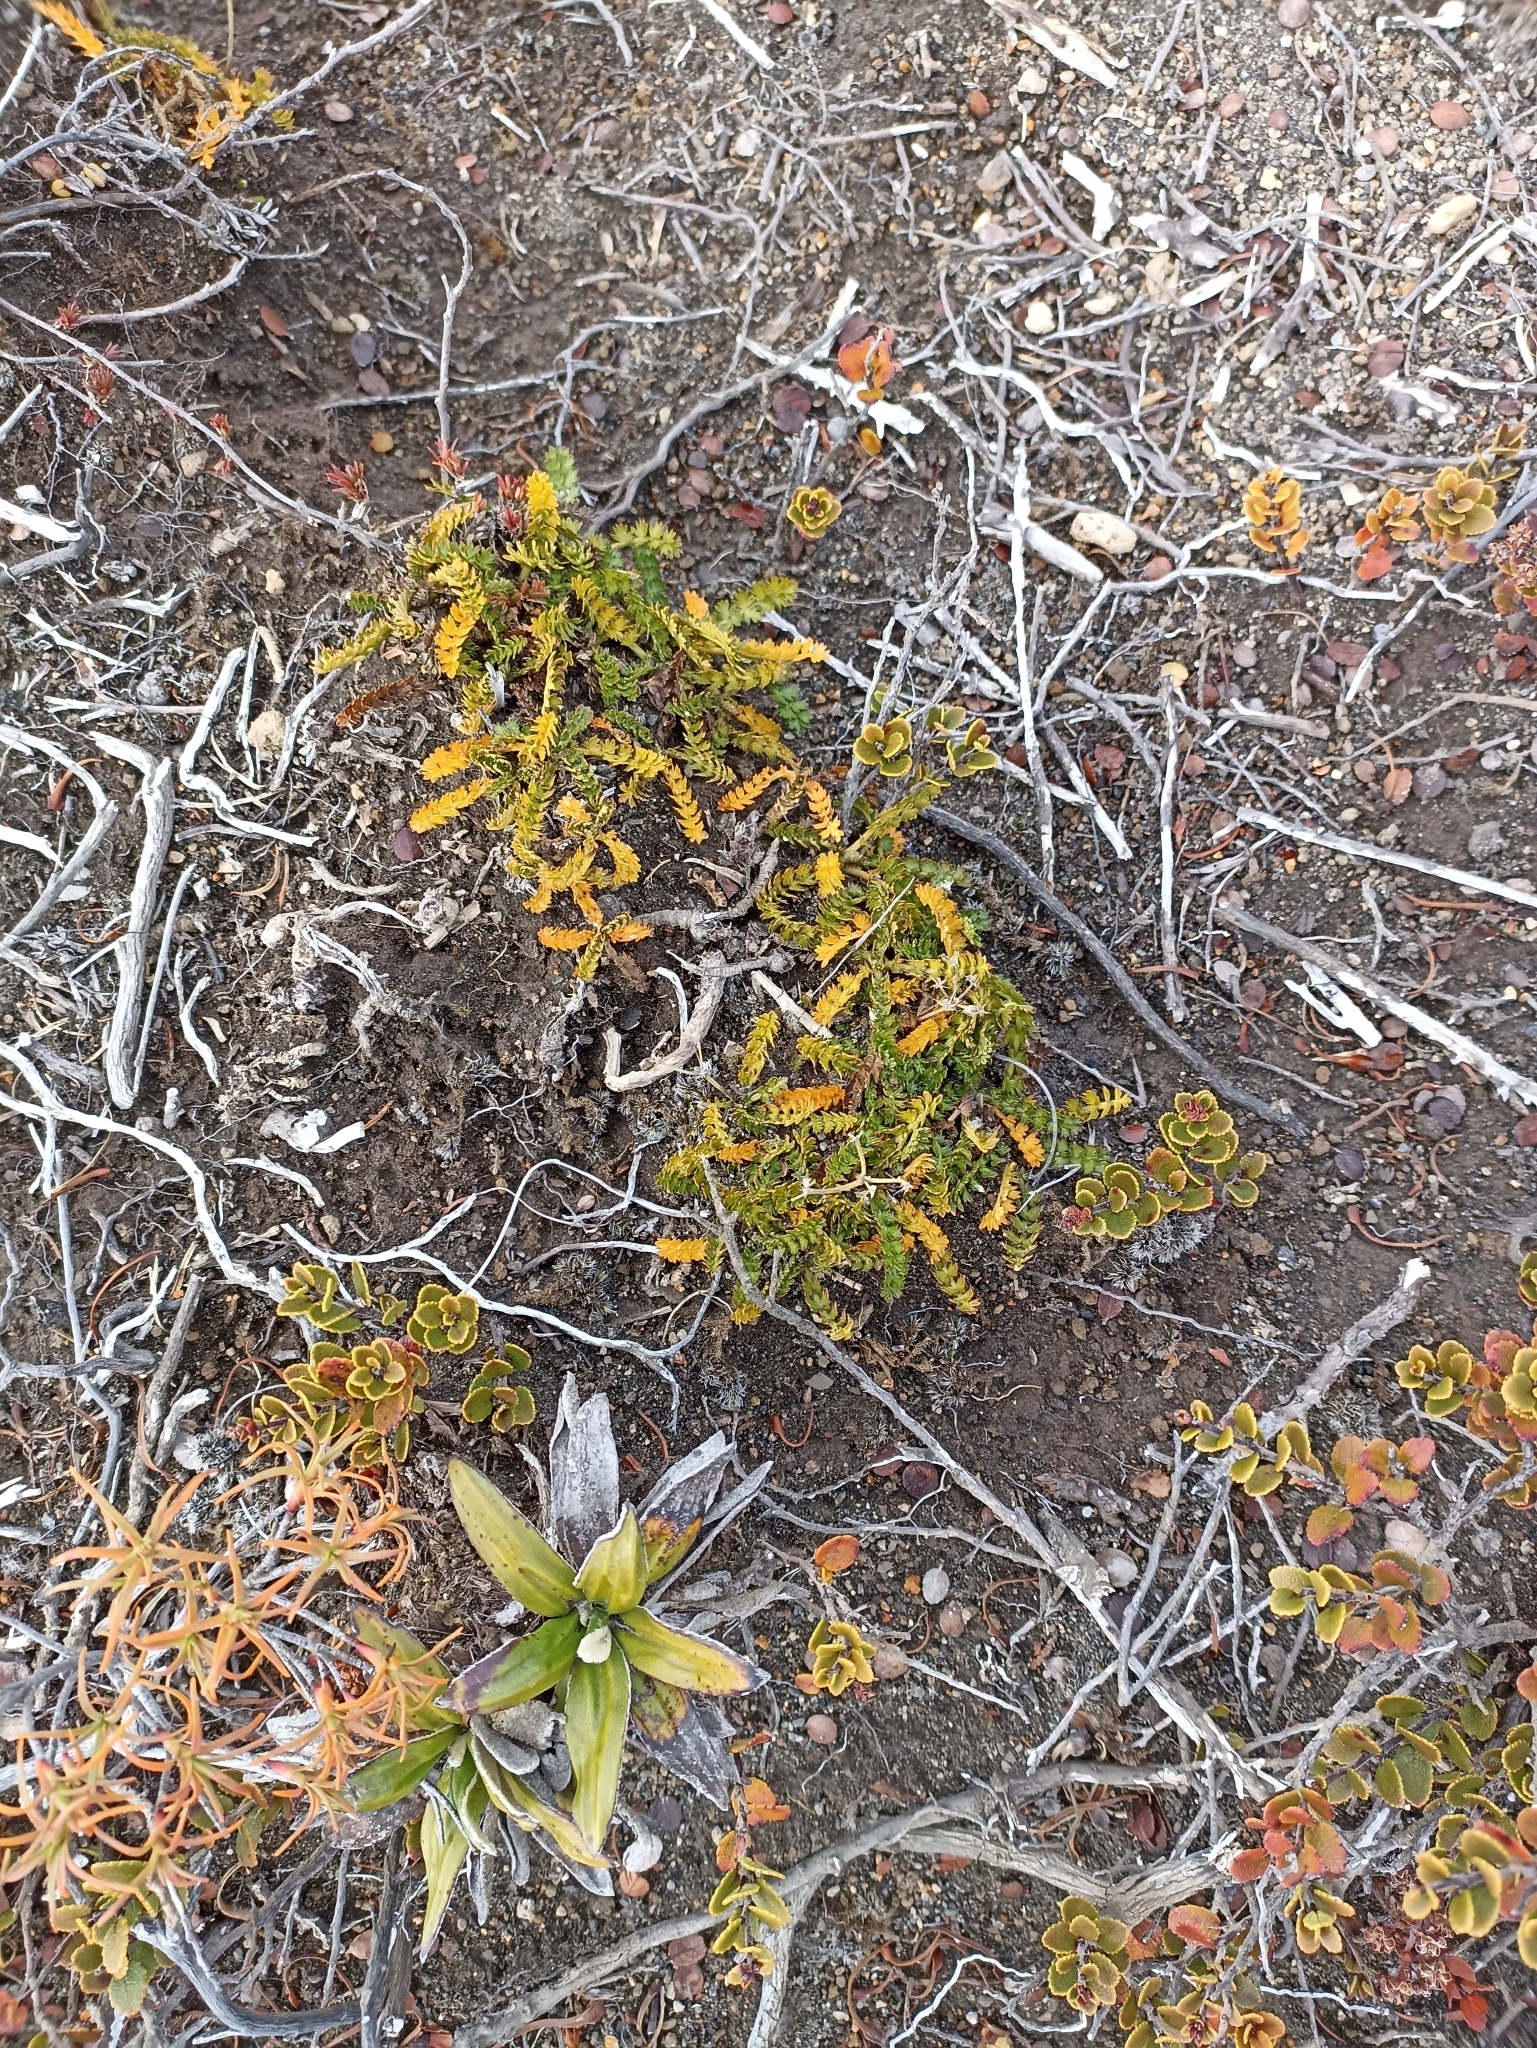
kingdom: Plantae
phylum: Tracheophyta
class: Magnoliopsida
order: Apiales
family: Apiaceae
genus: Anisotome
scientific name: Anisotome aromatica
